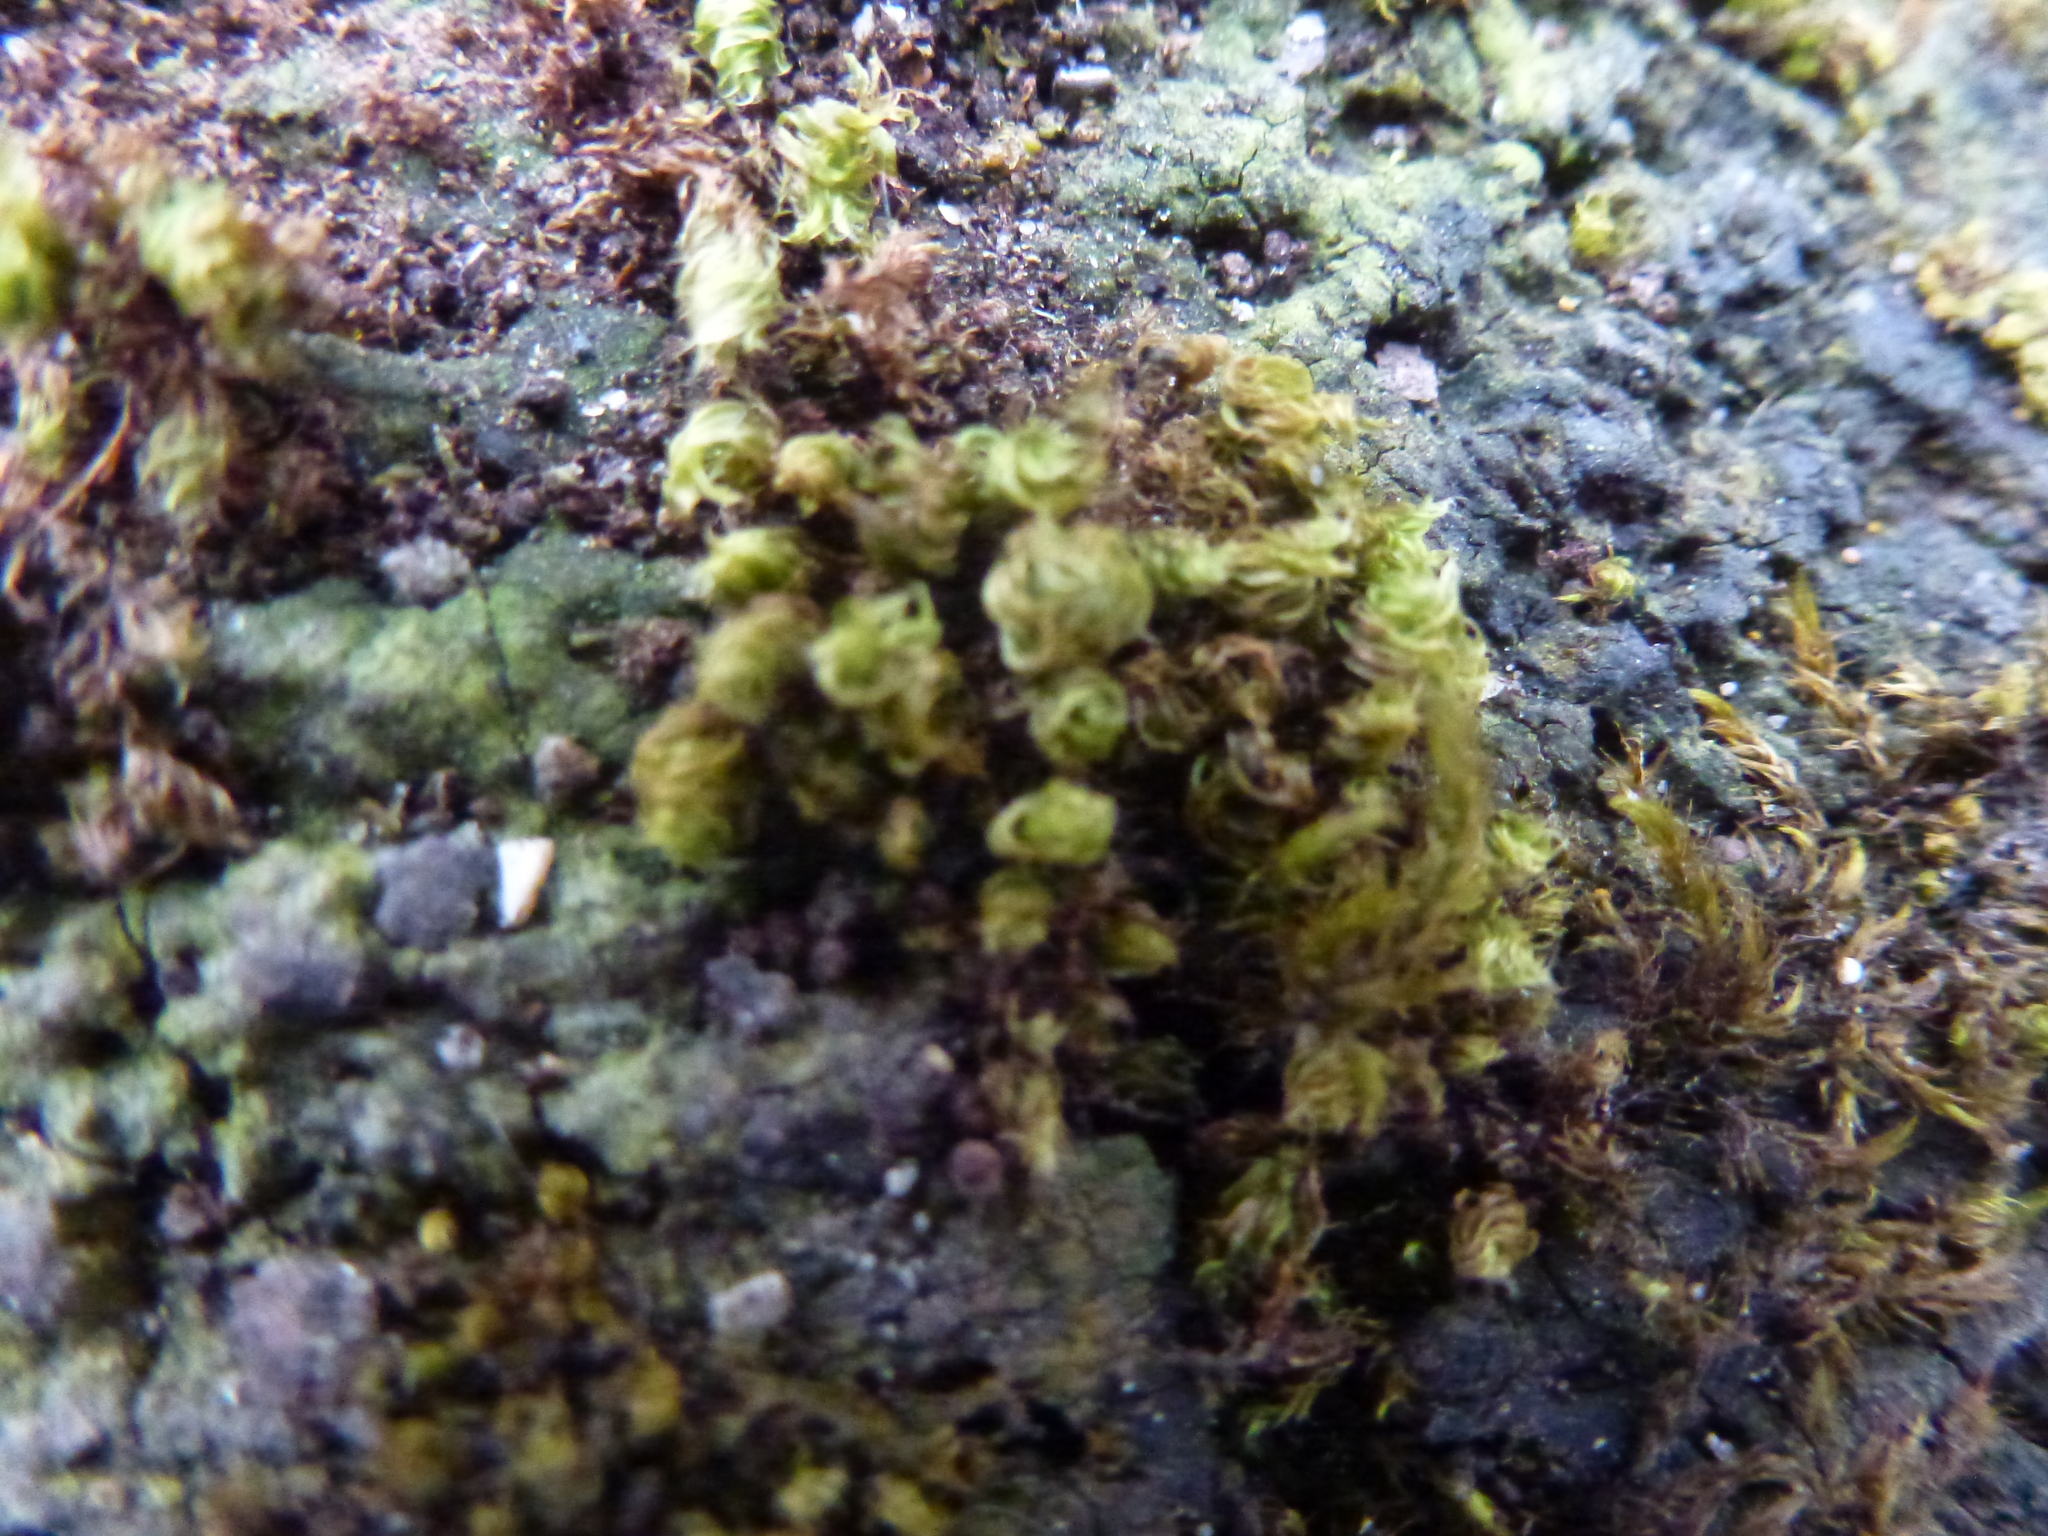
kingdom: Plantae
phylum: Bryophyta
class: Bryopsida
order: Bryales
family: Bryaceae
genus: Rosulabryum
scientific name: Rosulabryum capillare
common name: Capillary thread-moss
